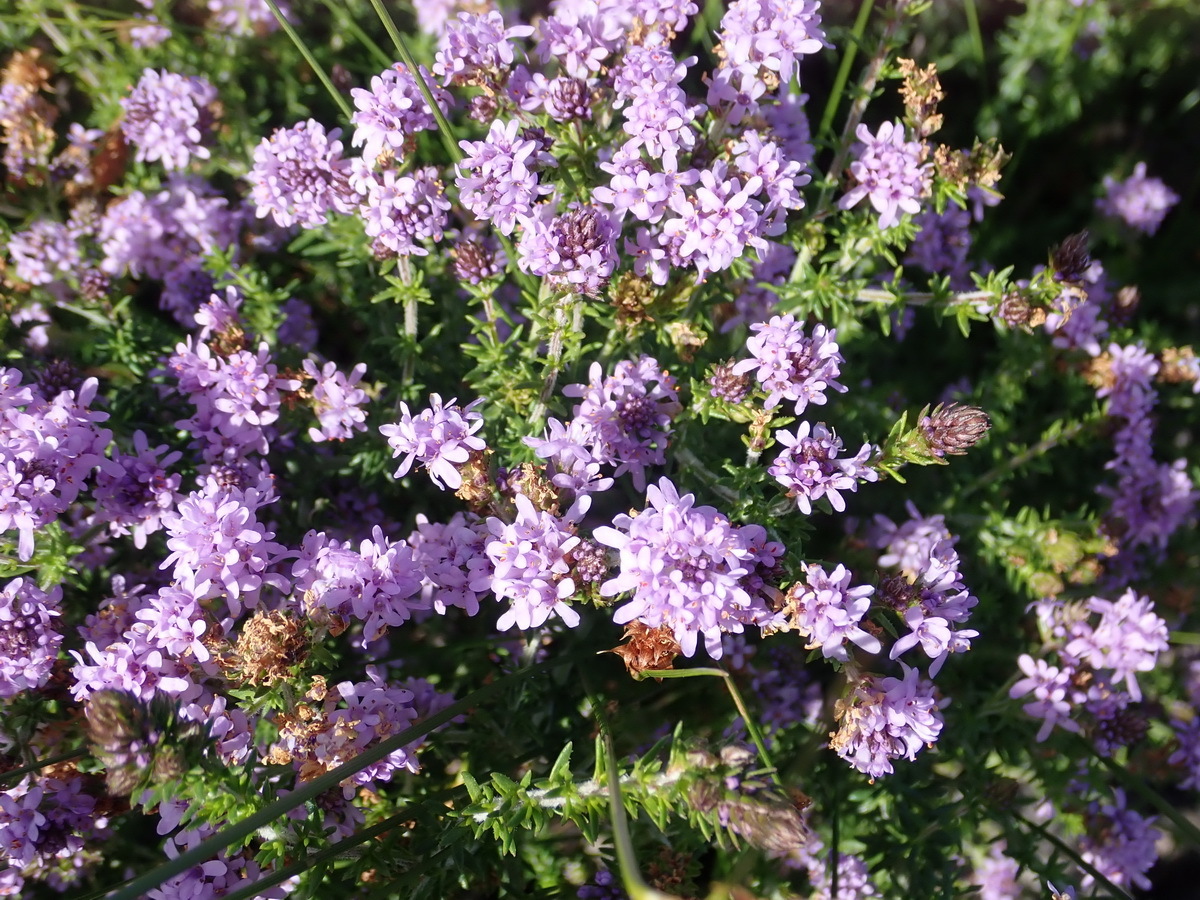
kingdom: Plantae
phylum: Tracheophyta
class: Magnoliopsida
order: Lamiales
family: Scrophulariaceae
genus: Selago
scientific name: Selago villicaulis
